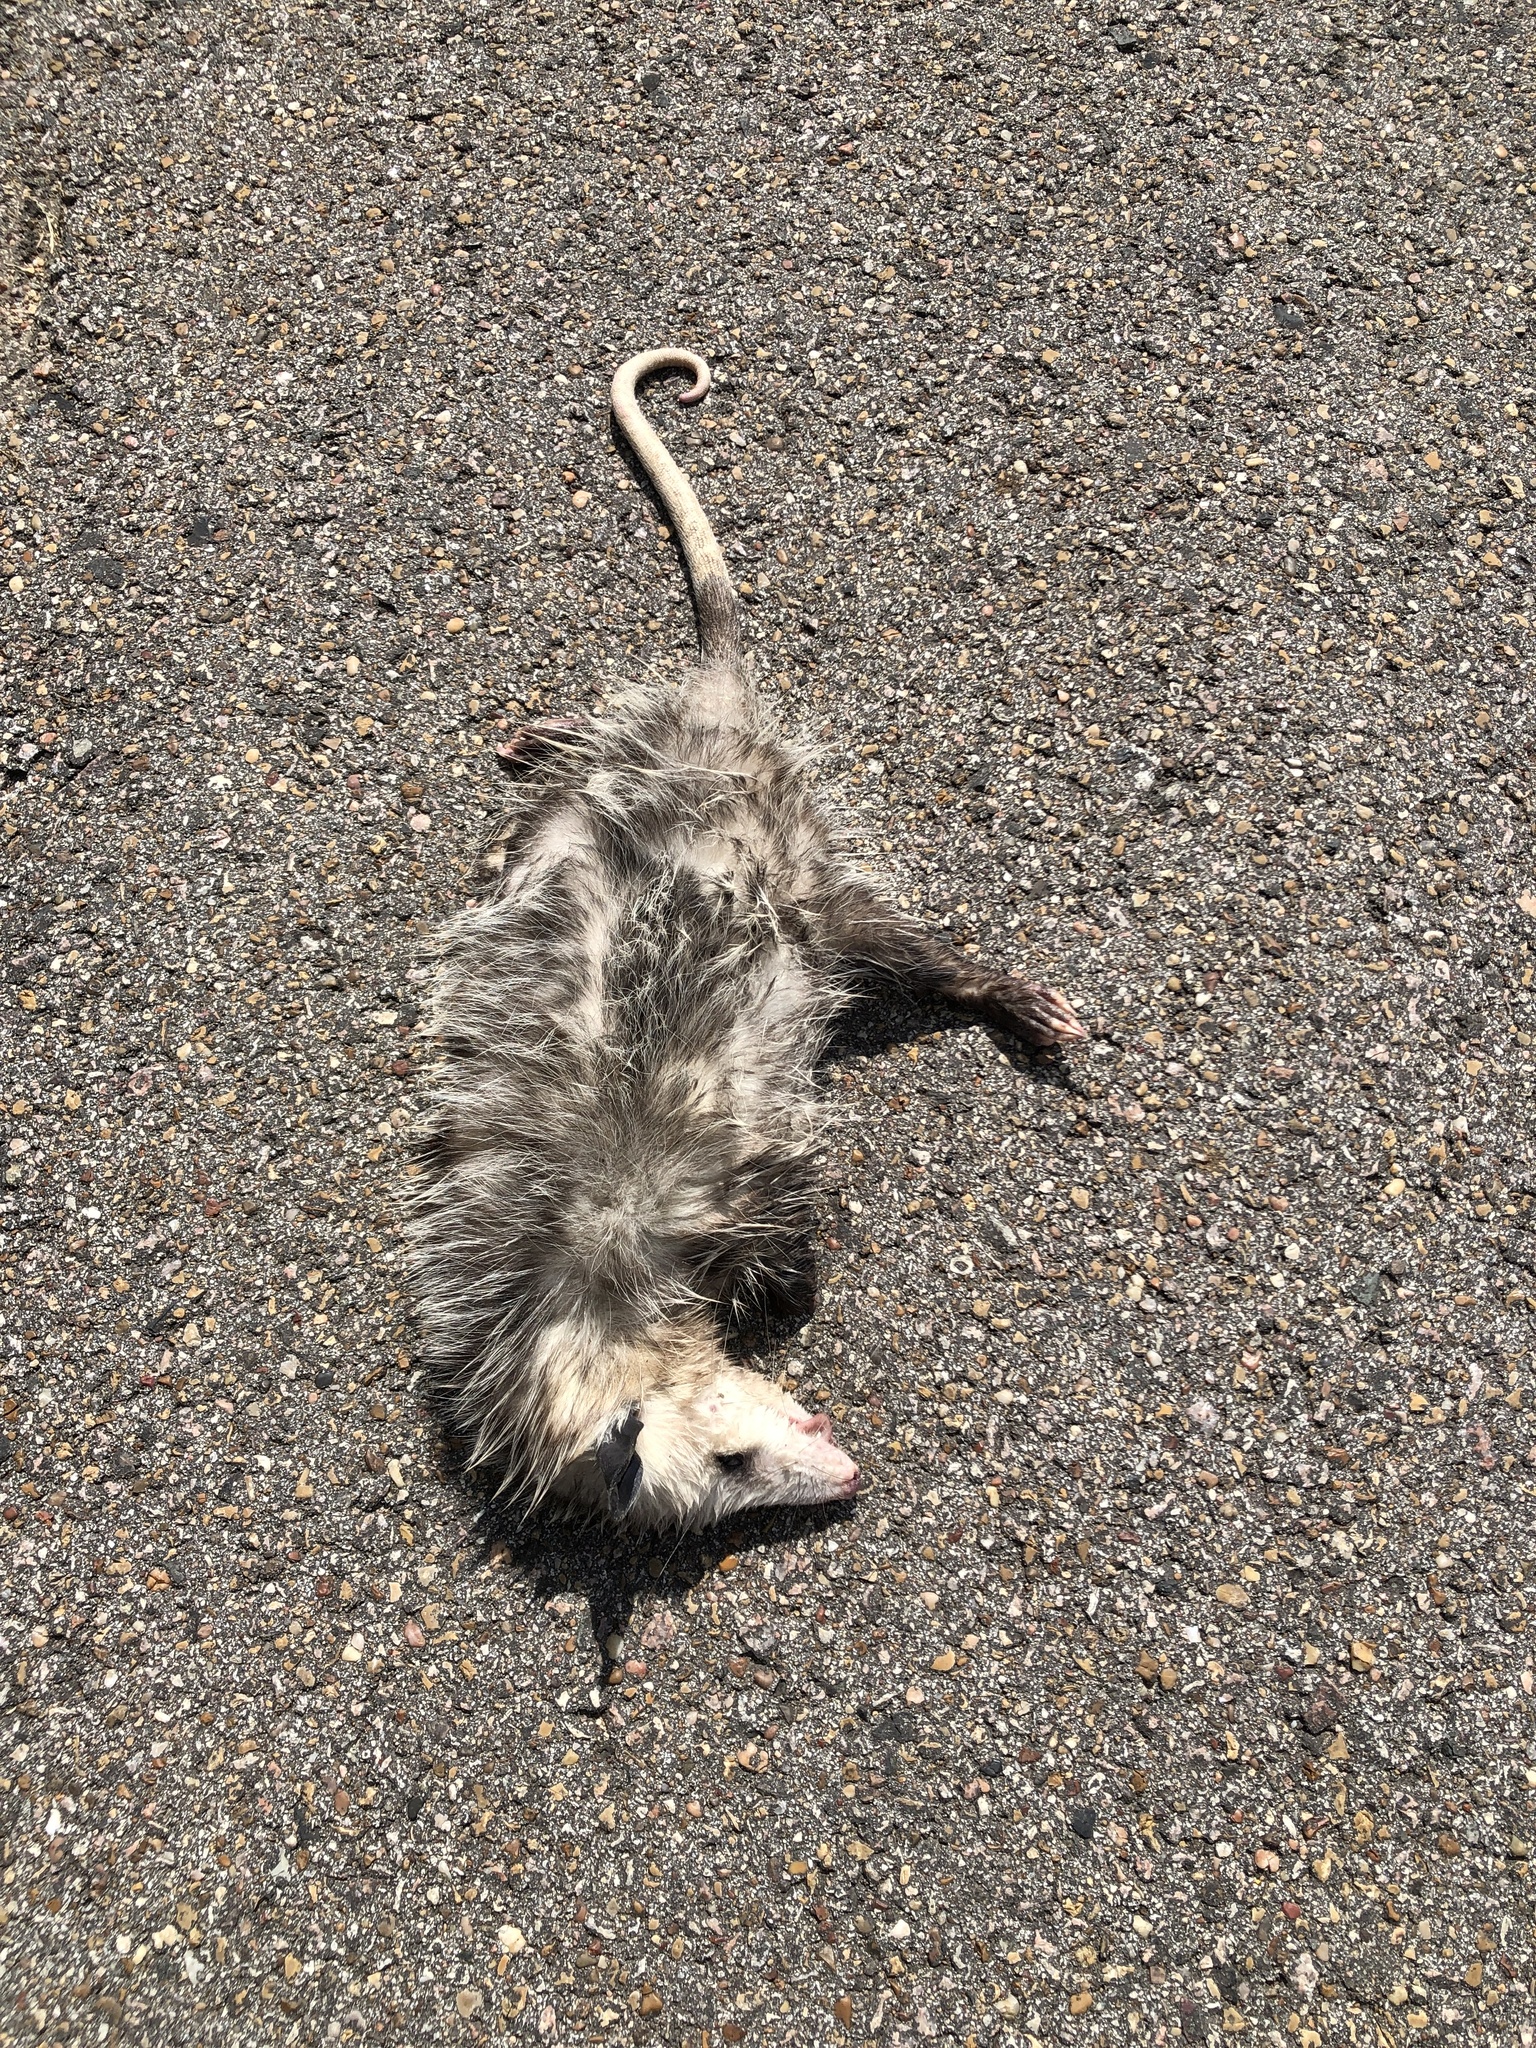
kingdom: Animalia
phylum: Chordata
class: Mammalia
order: Didelphimorphia
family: Didelphidae
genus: Didelphis
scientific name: Didelphis virginiana
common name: Virginia opossum
